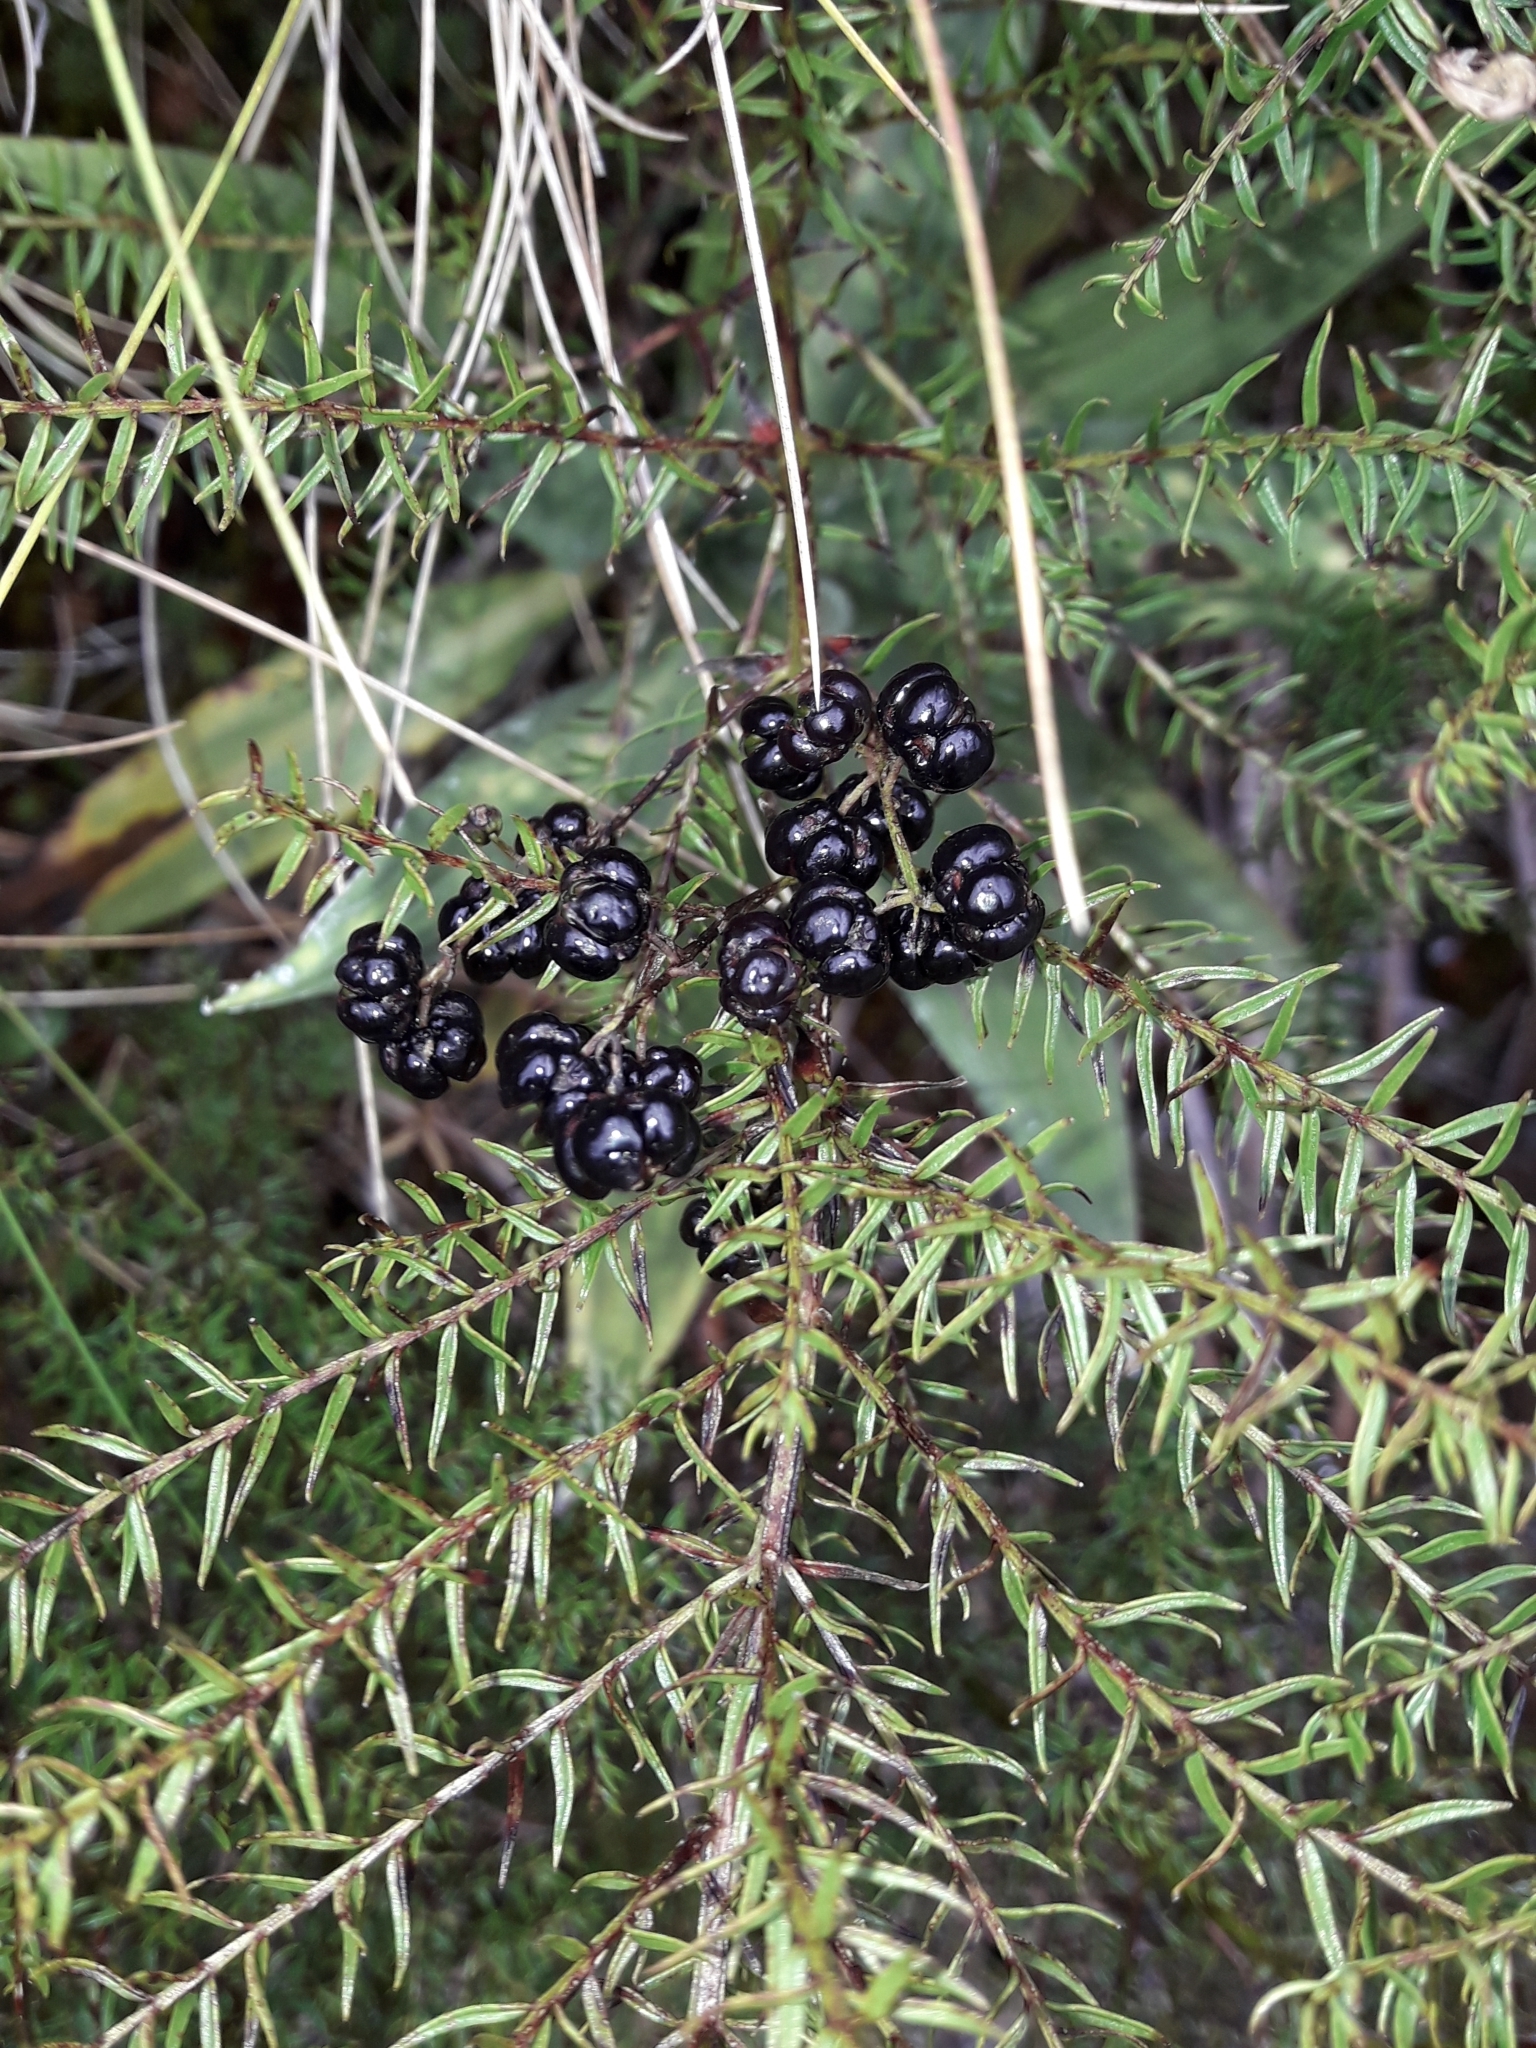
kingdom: Plantae
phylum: Tracheophyta
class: Magnoliopsida
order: Cucurbitales
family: Coriariaceae
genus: Coriaria
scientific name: Coriaria angustissima
